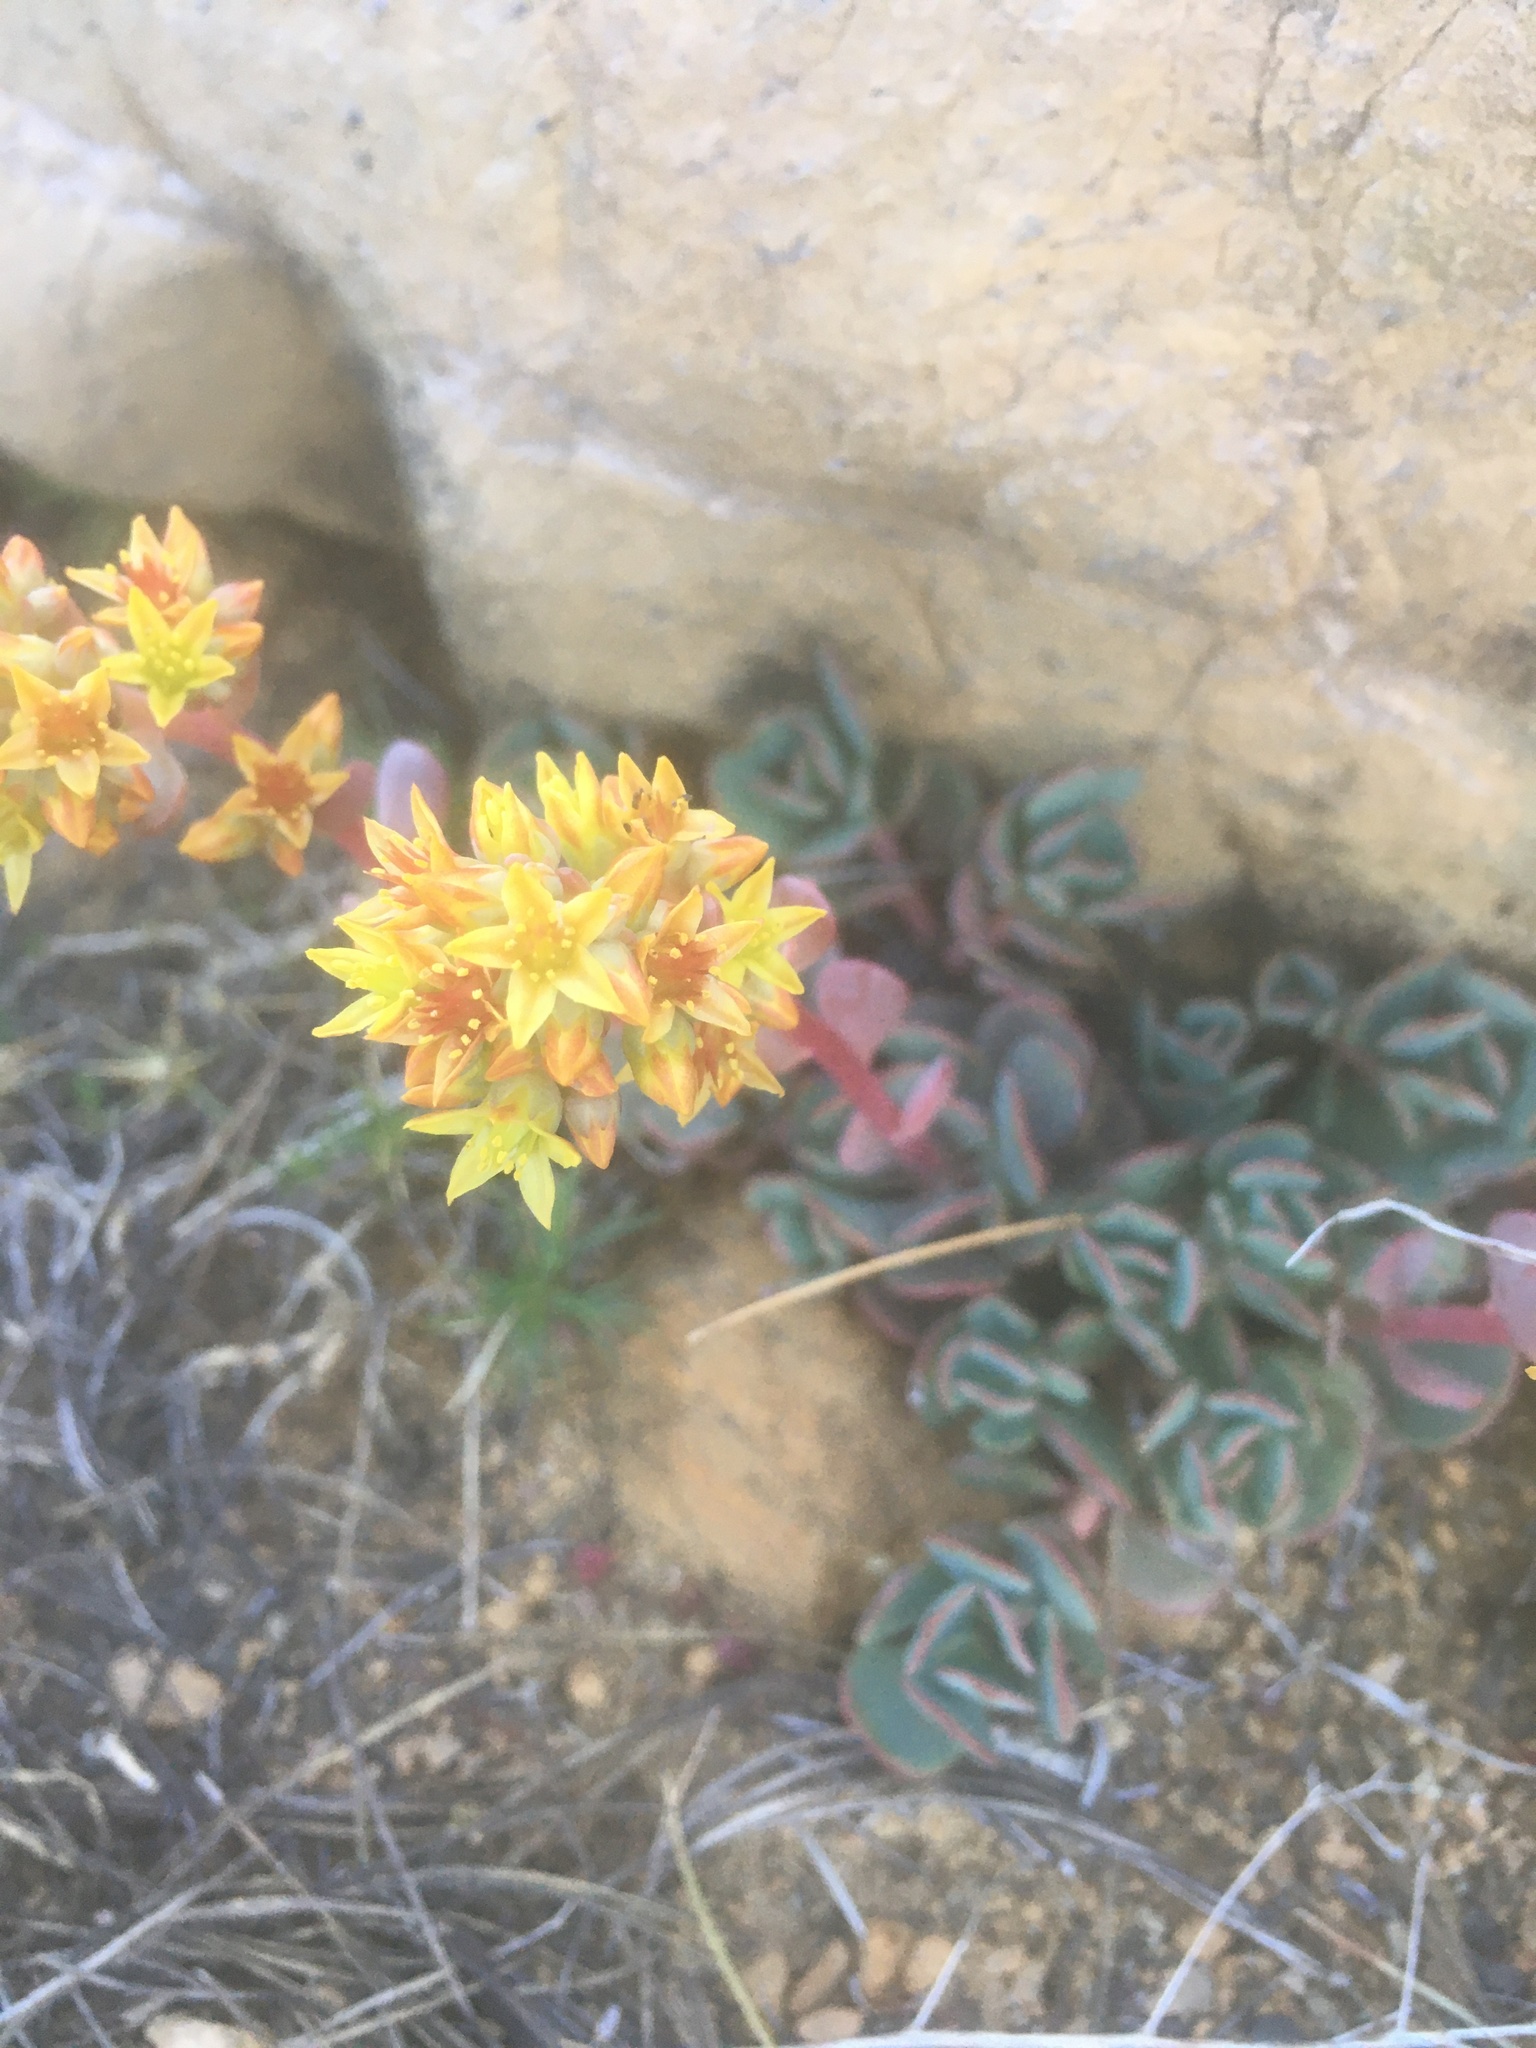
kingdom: Plantae
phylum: Tracheophyta
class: Magnoliopsida
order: Saxifragales
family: Crassulaceae
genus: Sedum
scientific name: Sedum obtusatum
